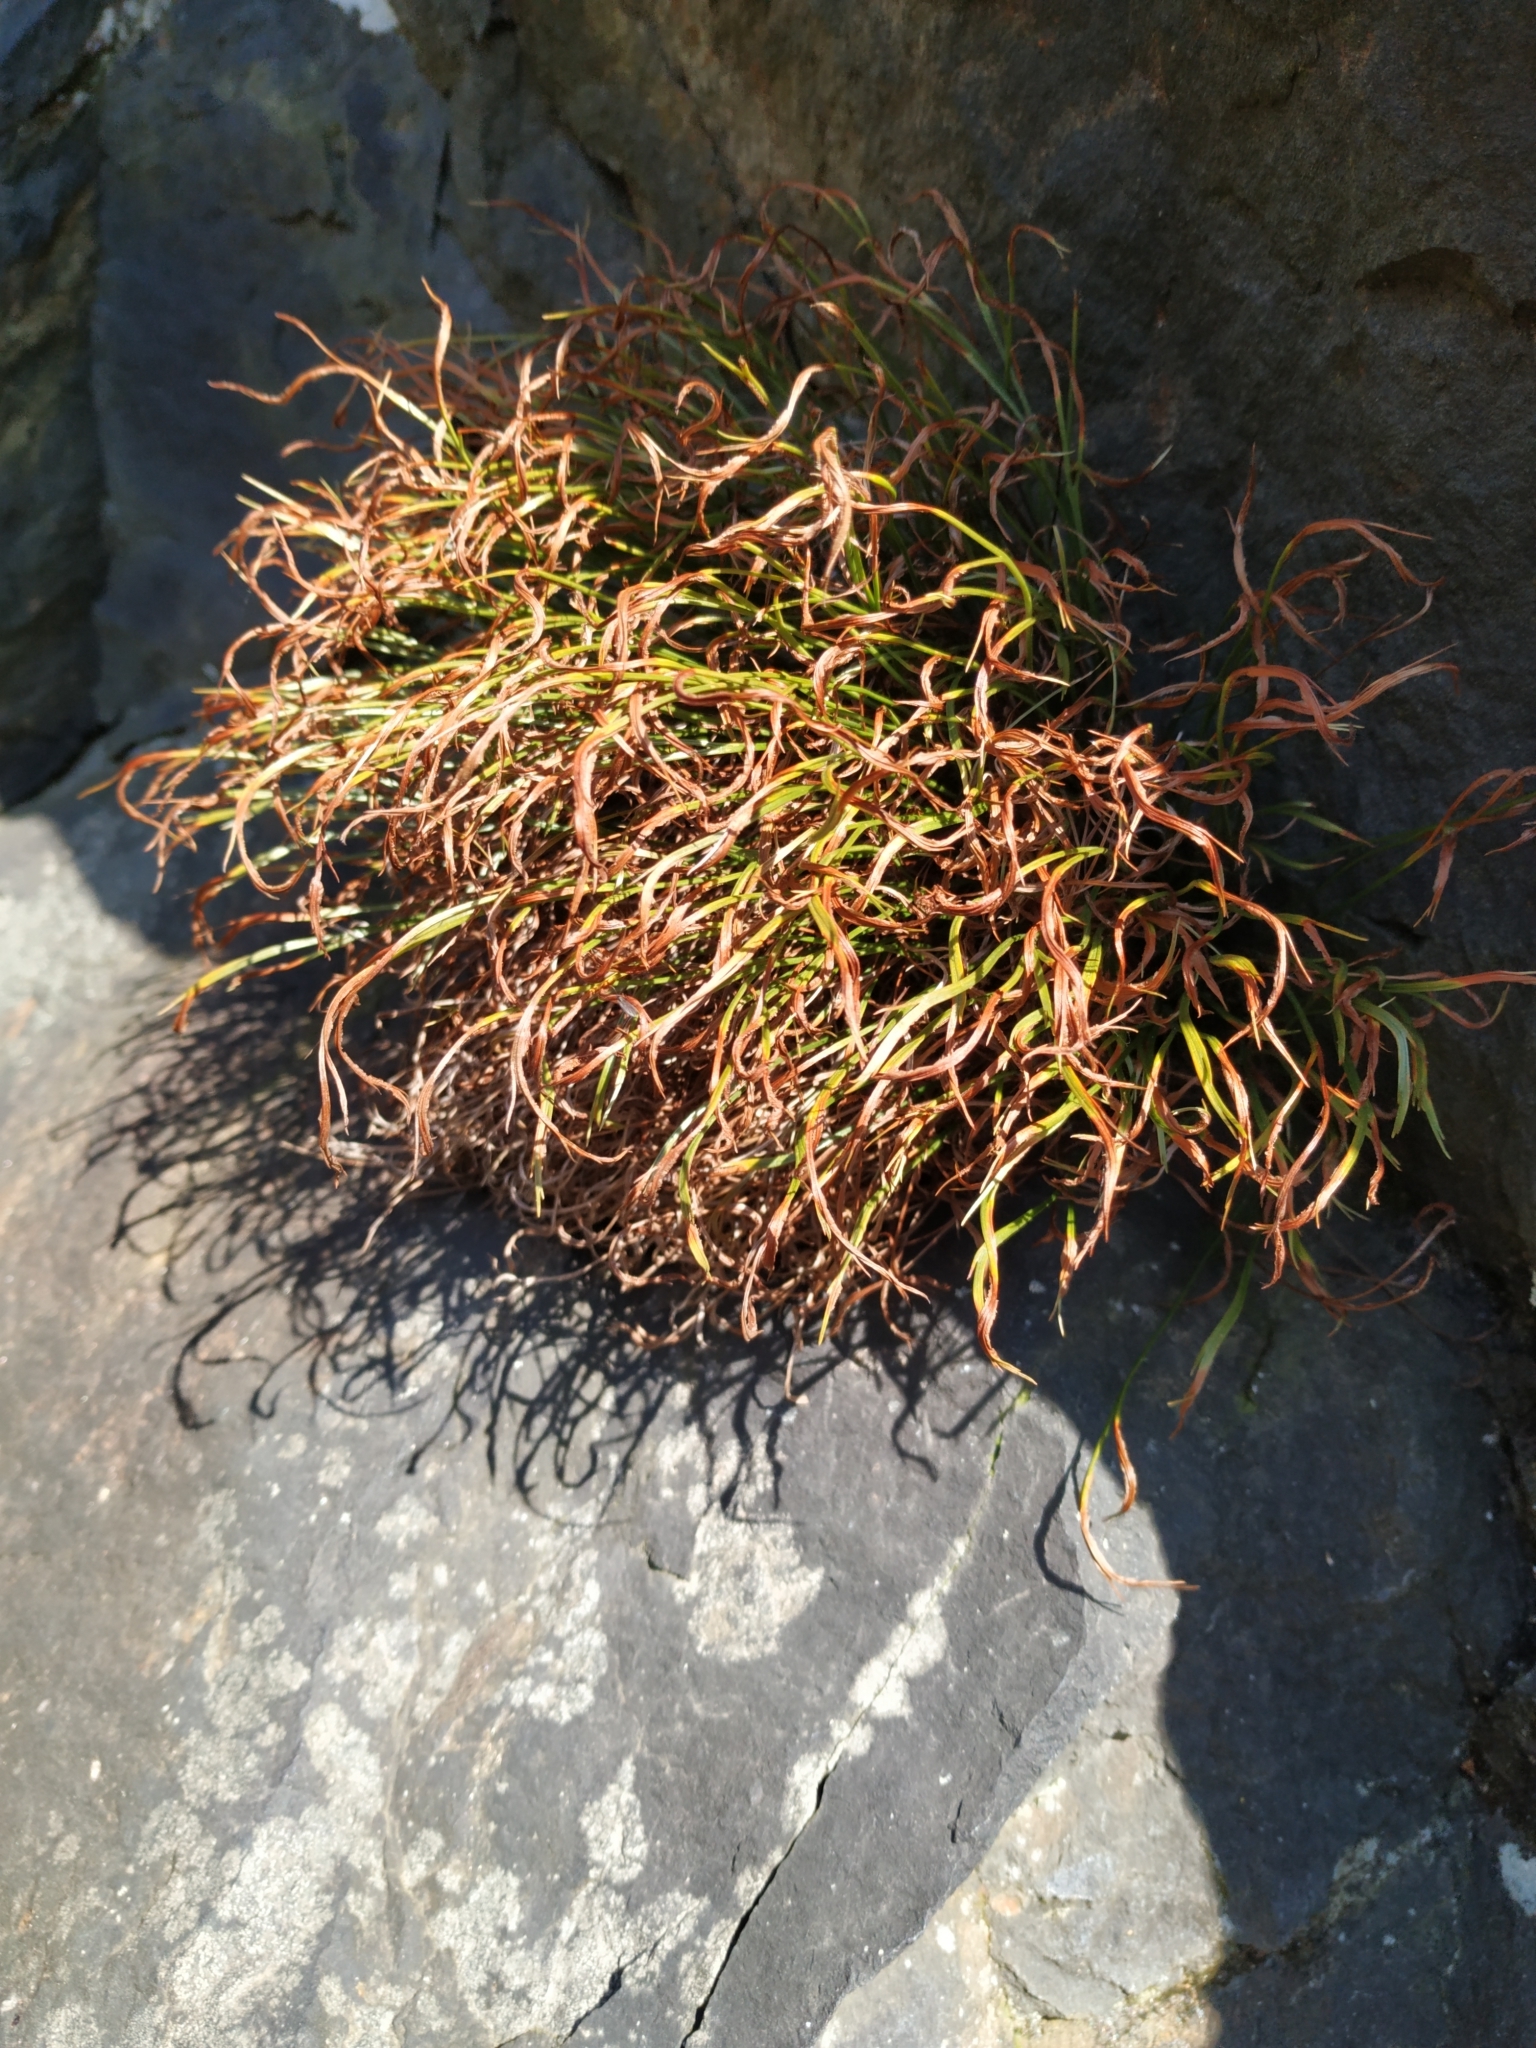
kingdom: Plantae
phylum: Tracheophyta
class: Polypodiopsida
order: Polypodiales
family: Aspleniaceae
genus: Asplenium
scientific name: Asplenium septentrionale
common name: Forked spleenwort
